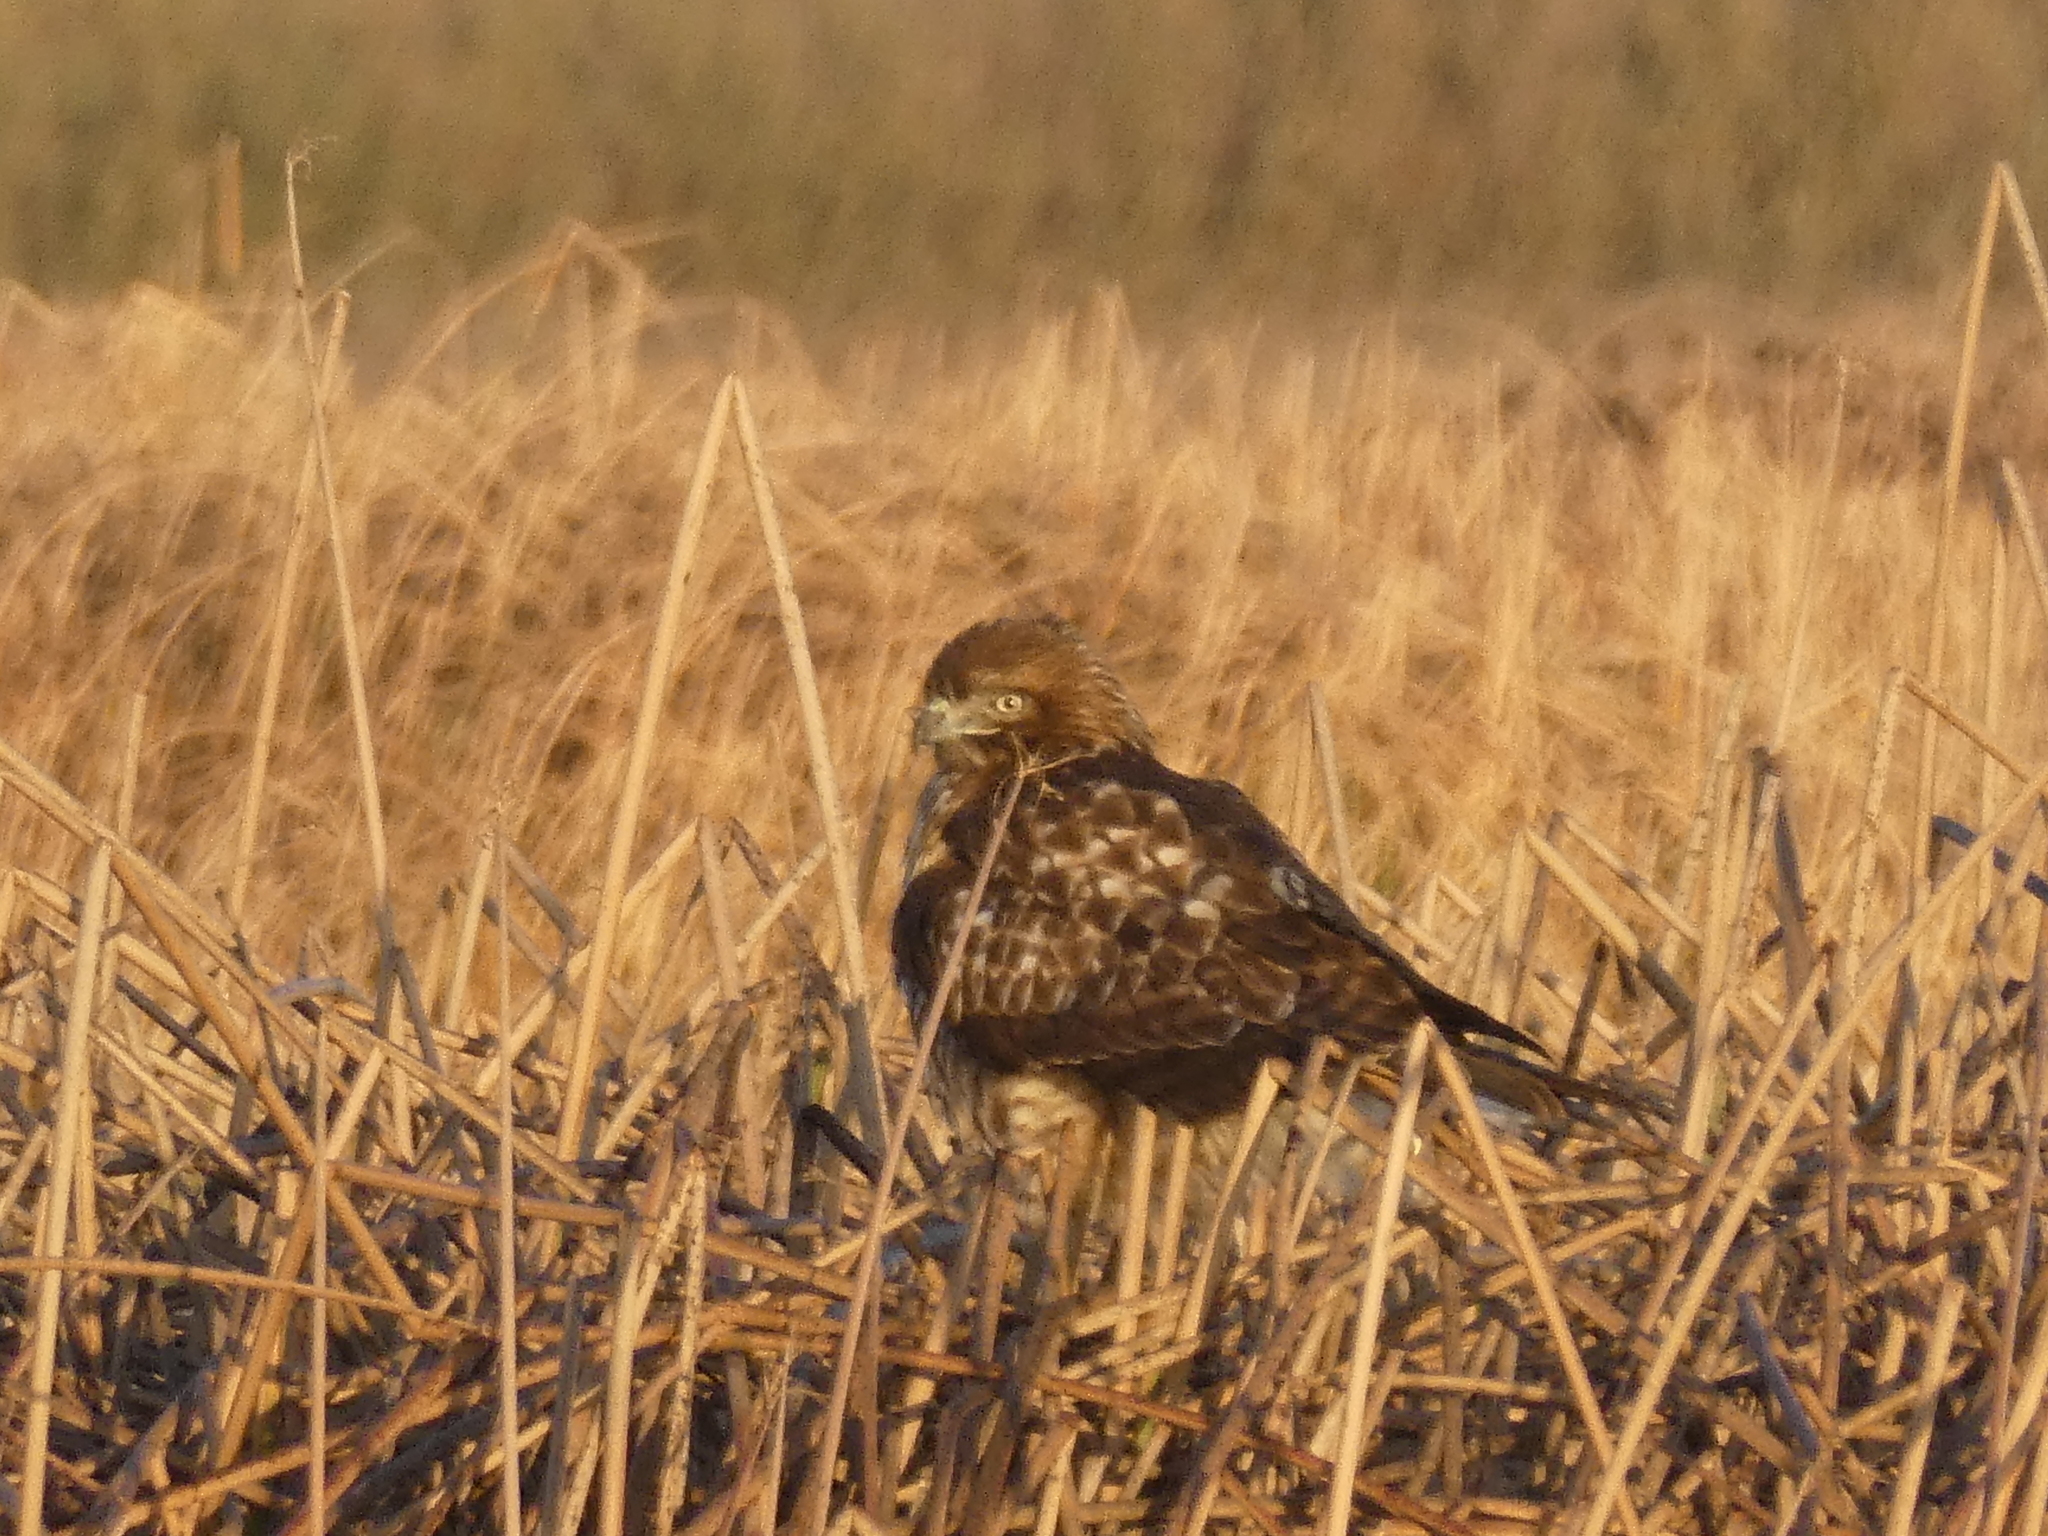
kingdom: Animalia
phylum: Chordata
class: Aves
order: Accipitriformes
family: Accipitridae
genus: Buteo
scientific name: Buteo jamaicensis
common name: Red-tailed hawk
